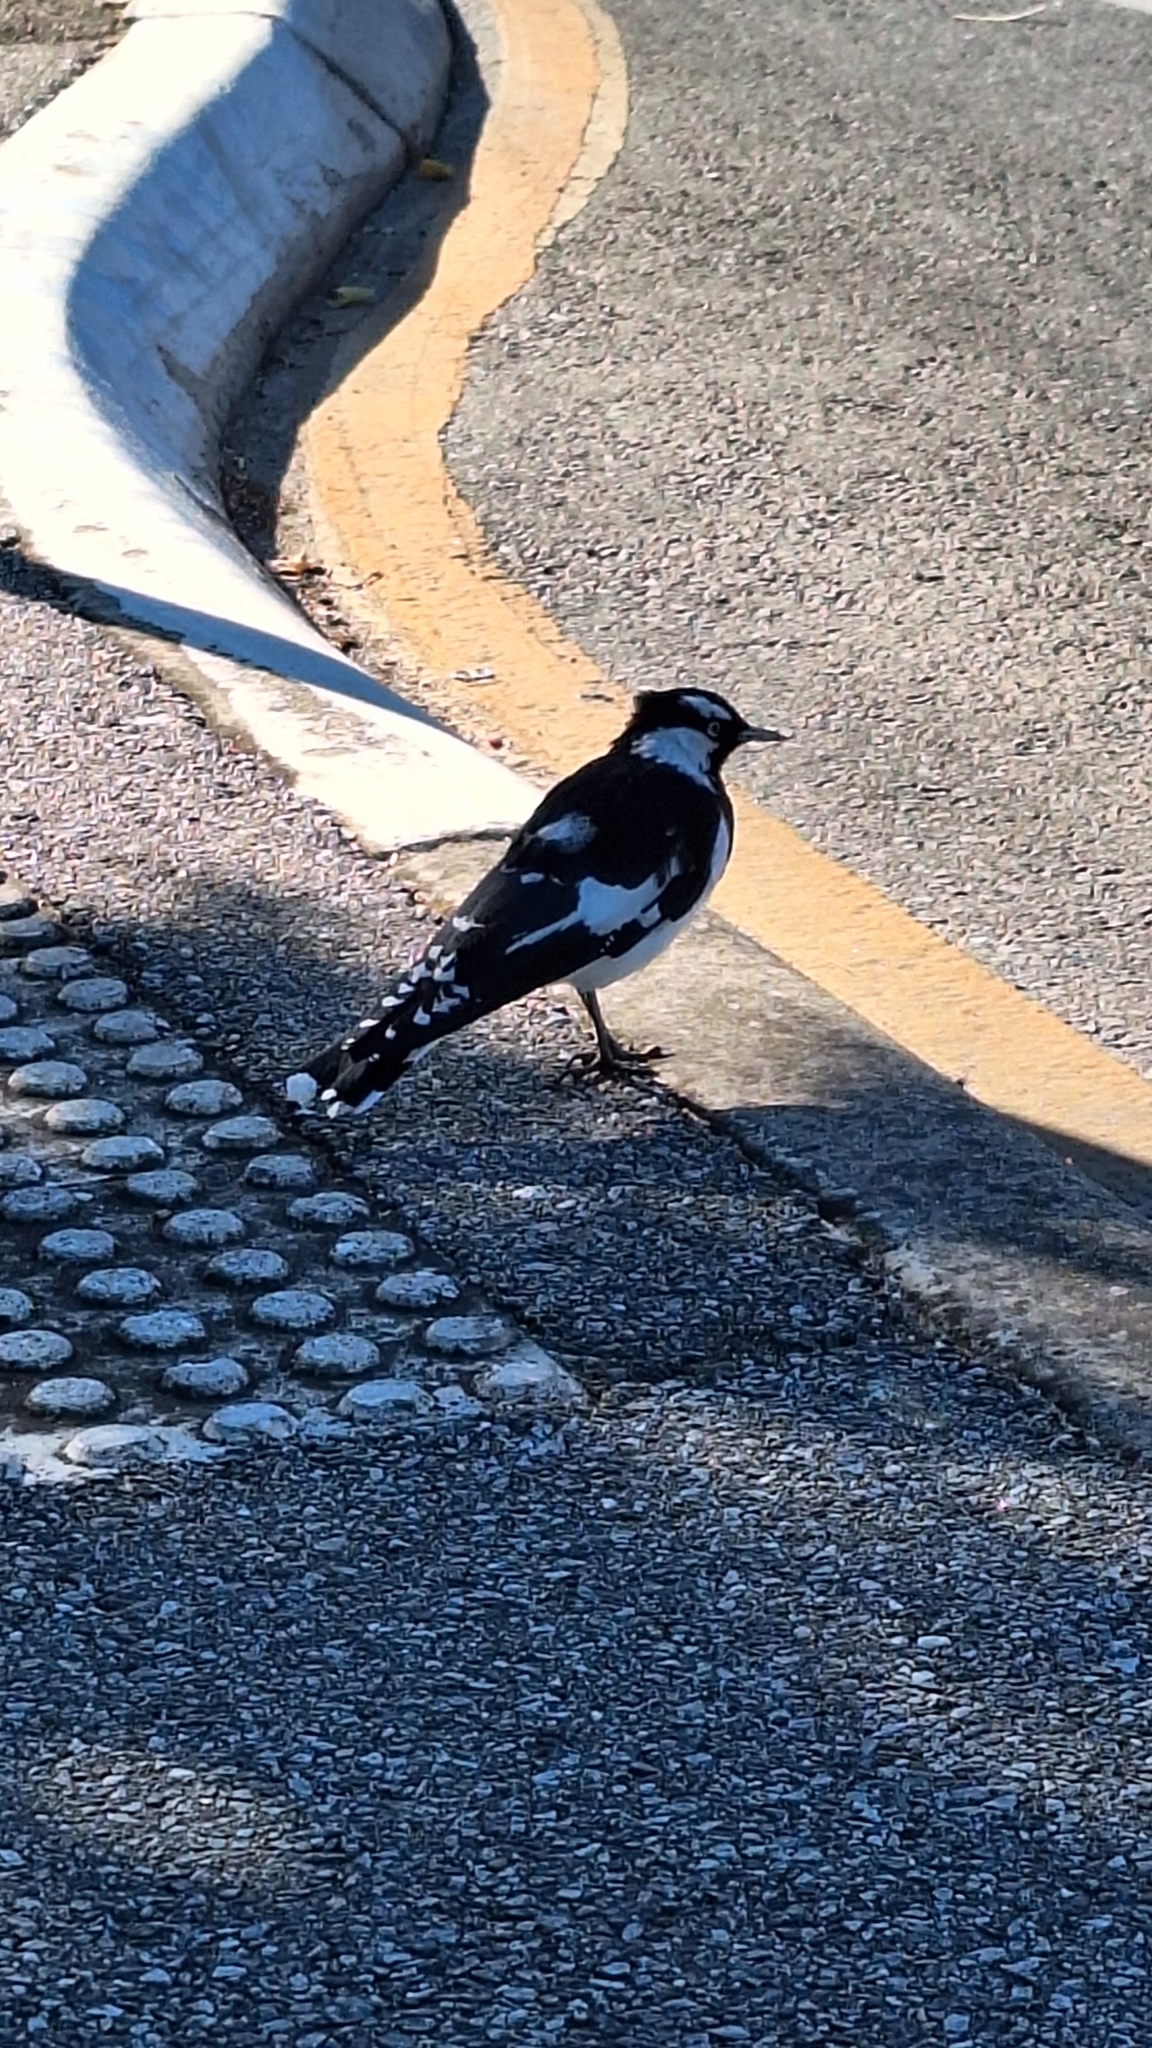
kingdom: Animalia
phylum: Chordata
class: Aves
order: Passeriformes
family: Monarchidae
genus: Grallina
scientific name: Grallina cyanoleuca
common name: Magpie-lark
